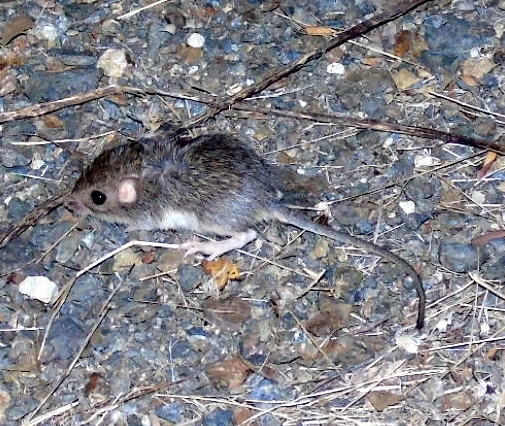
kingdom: Animalia
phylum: Chordata
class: Mammalia
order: Rodentia
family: Heteromyidae
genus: Liomys
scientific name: Liomys pictus
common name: Painted spiny pocket mouse
